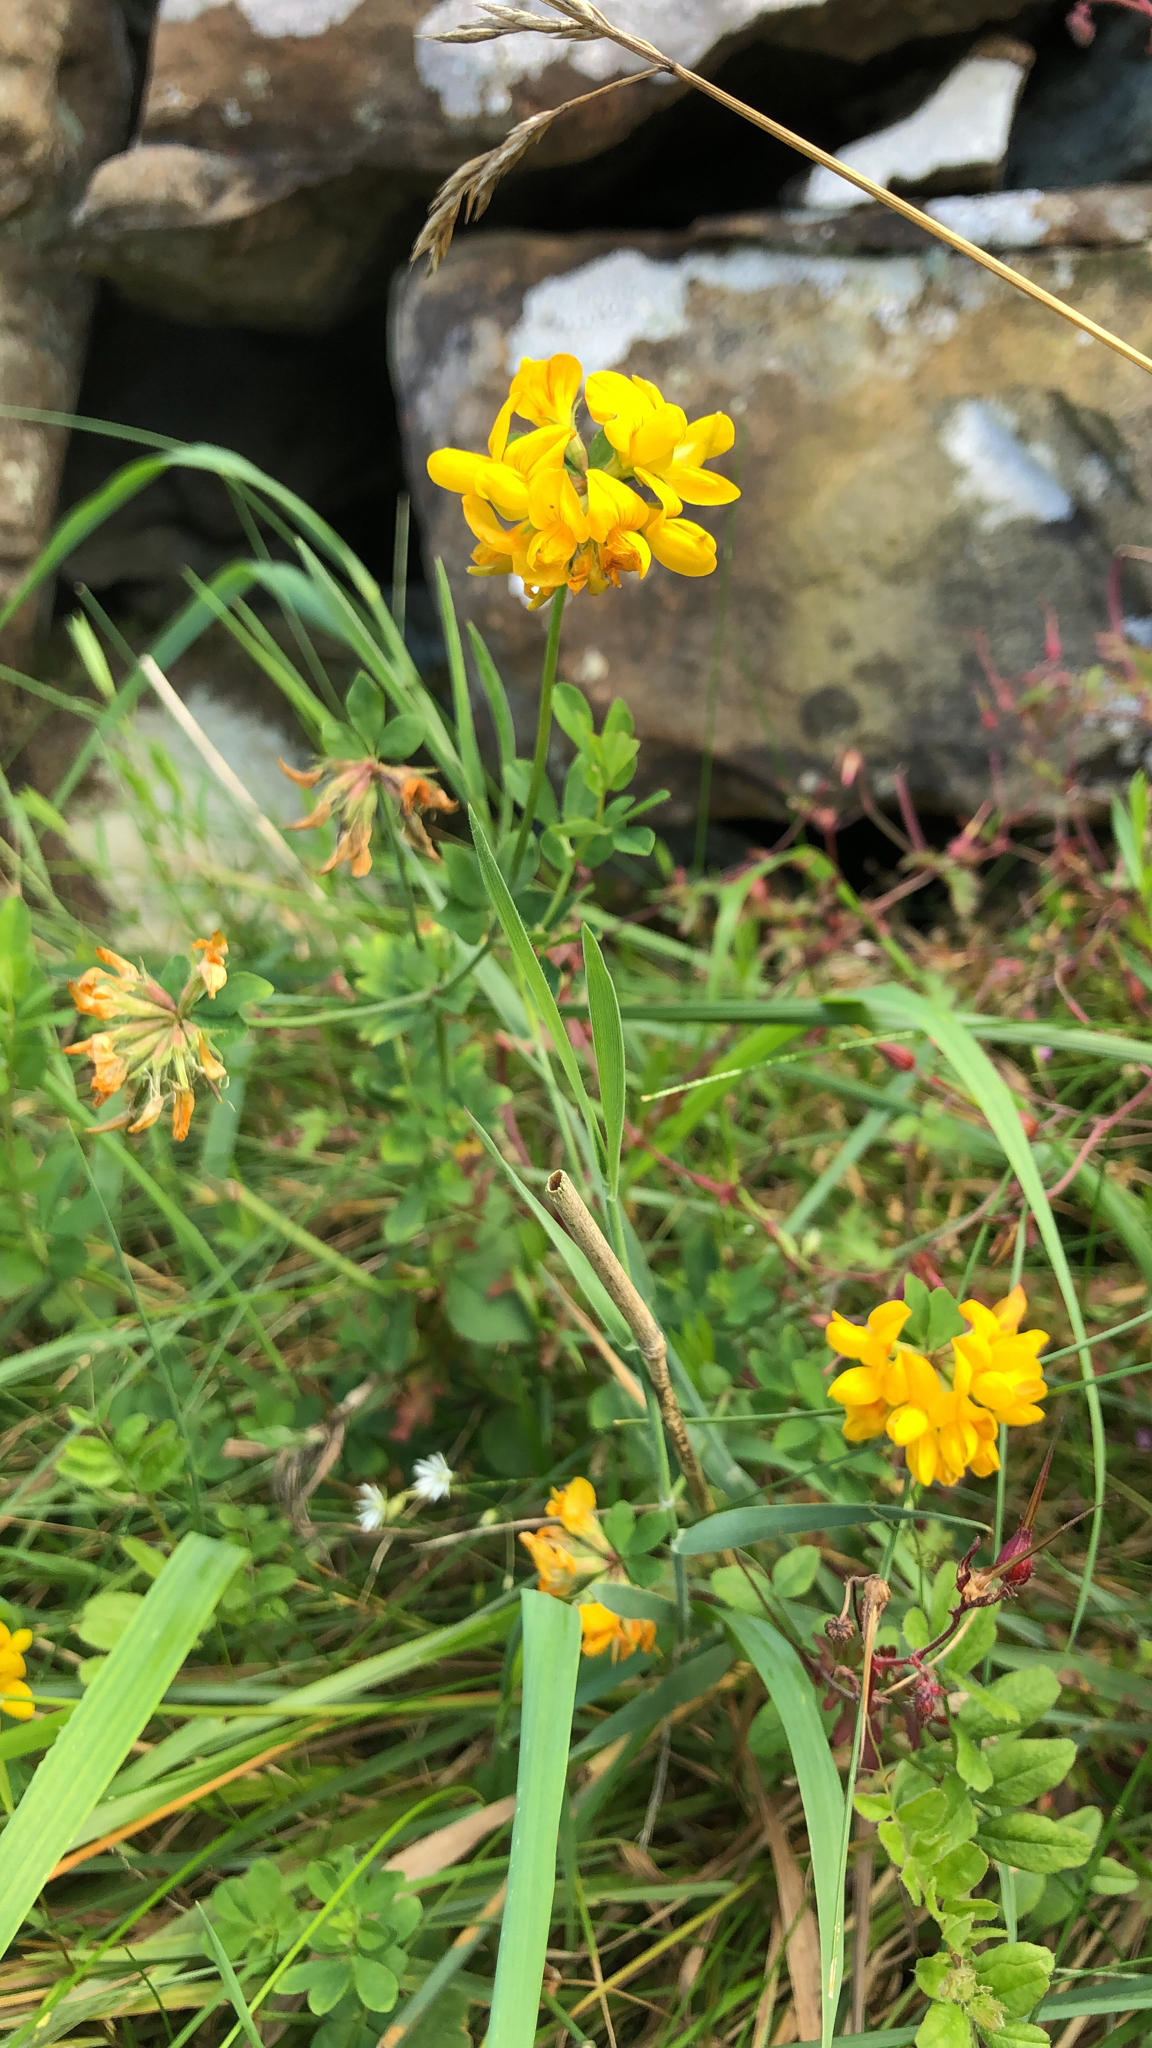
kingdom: Plantae
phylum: Tracheophyta
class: Magnoliopsida
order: Fabales
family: Fabaceae
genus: Lotus
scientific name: Lotus pedunculatus
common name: Greater birdsfoot-trefoil
